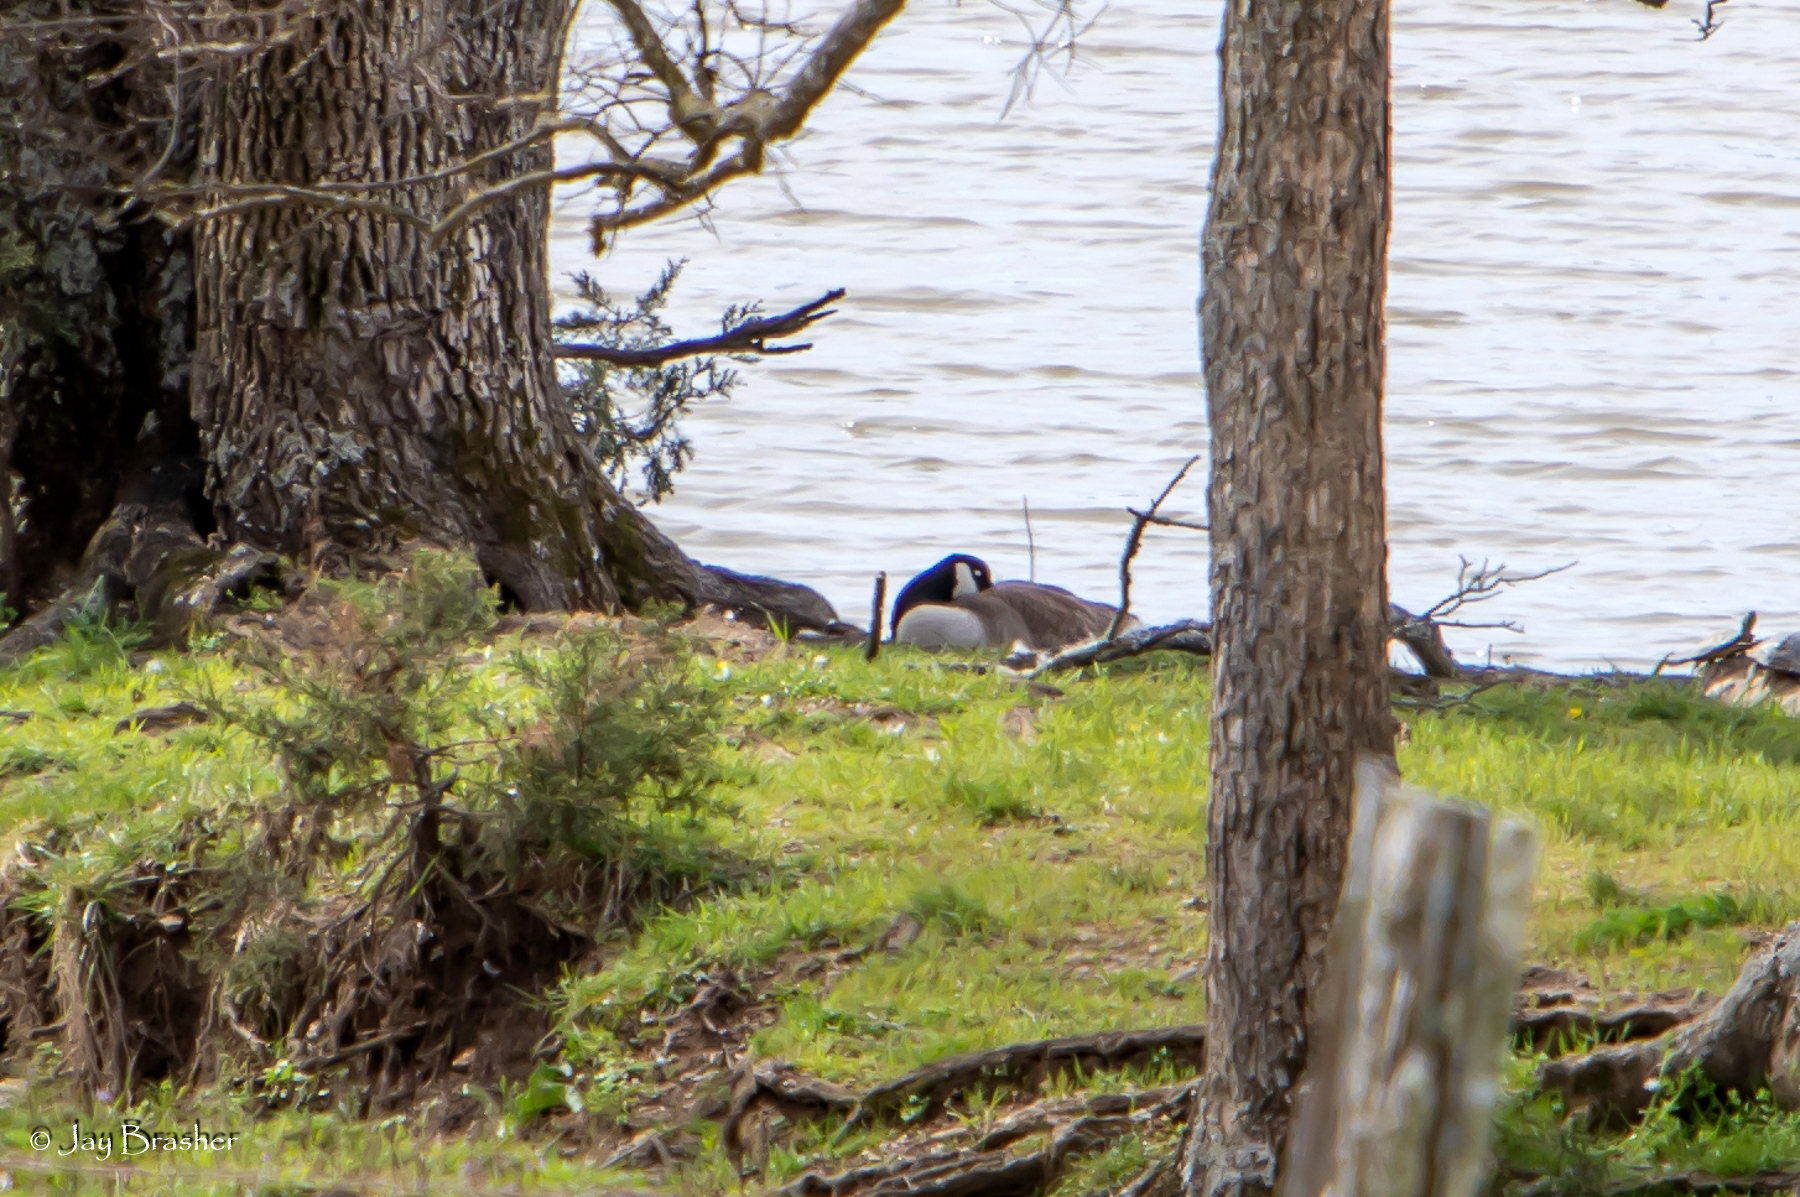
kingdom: Animalia
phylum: Chordata
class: Aves
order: Anseriformes
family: Anatidae
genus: Branta
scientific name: Branta canadensis
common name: Canada goose
